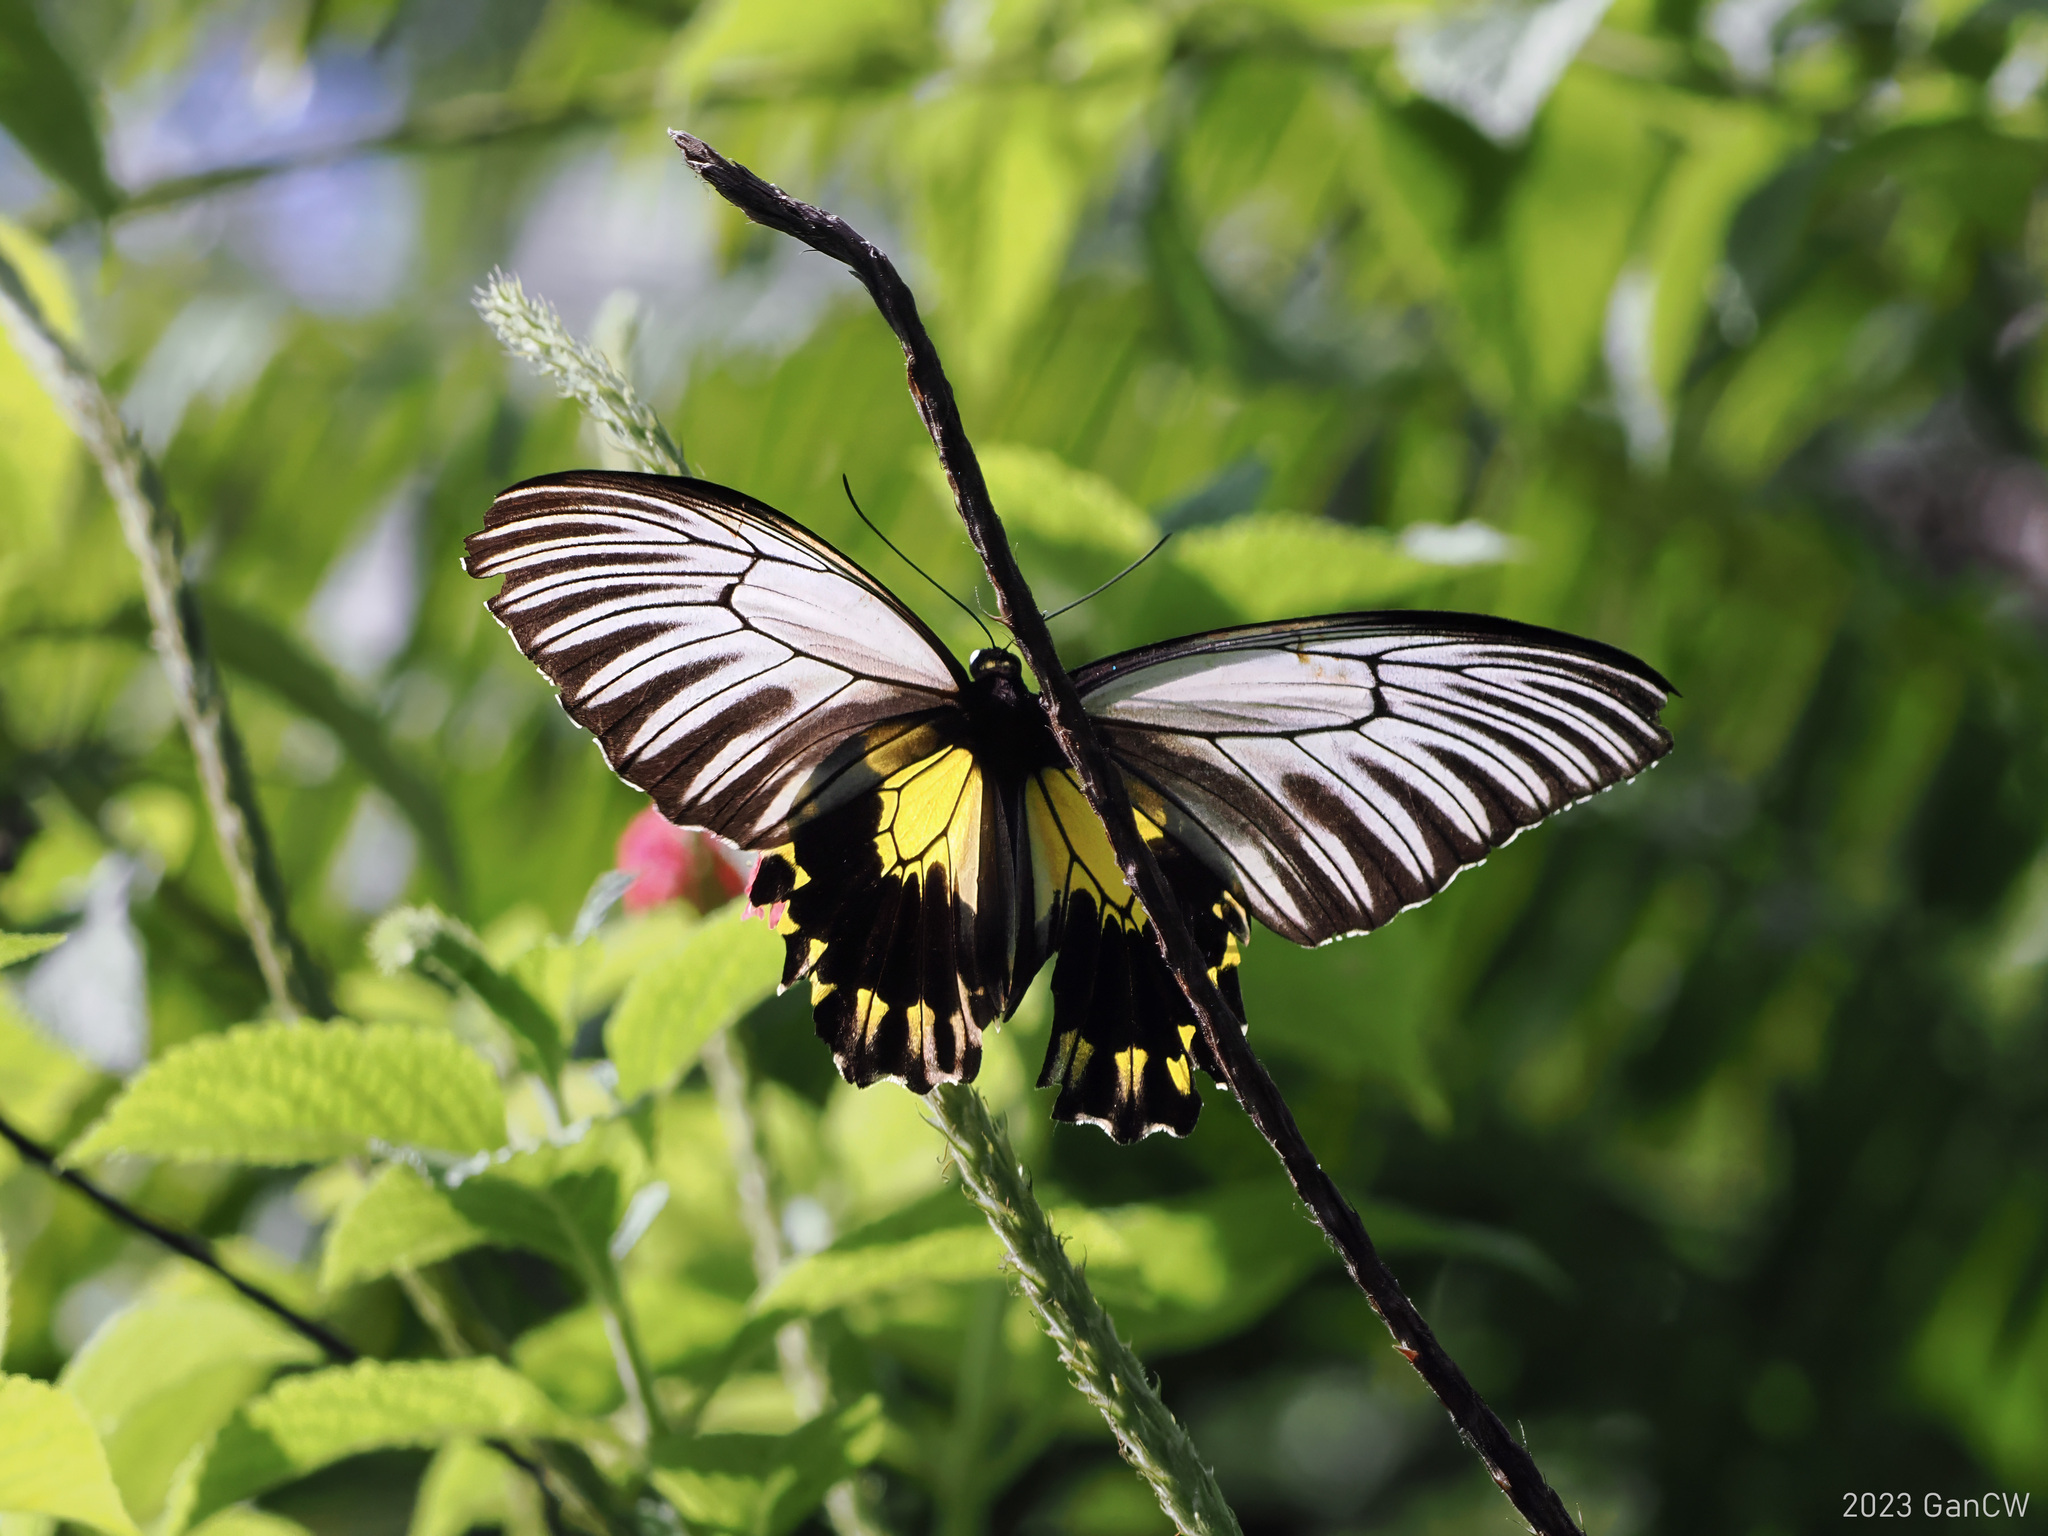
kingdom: Animalia
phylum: Arthropoda
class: Insecta
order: Lepidoptera
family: Papilionidae
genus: Troides
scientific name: Troides amphrysus
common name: Malay birdwing
